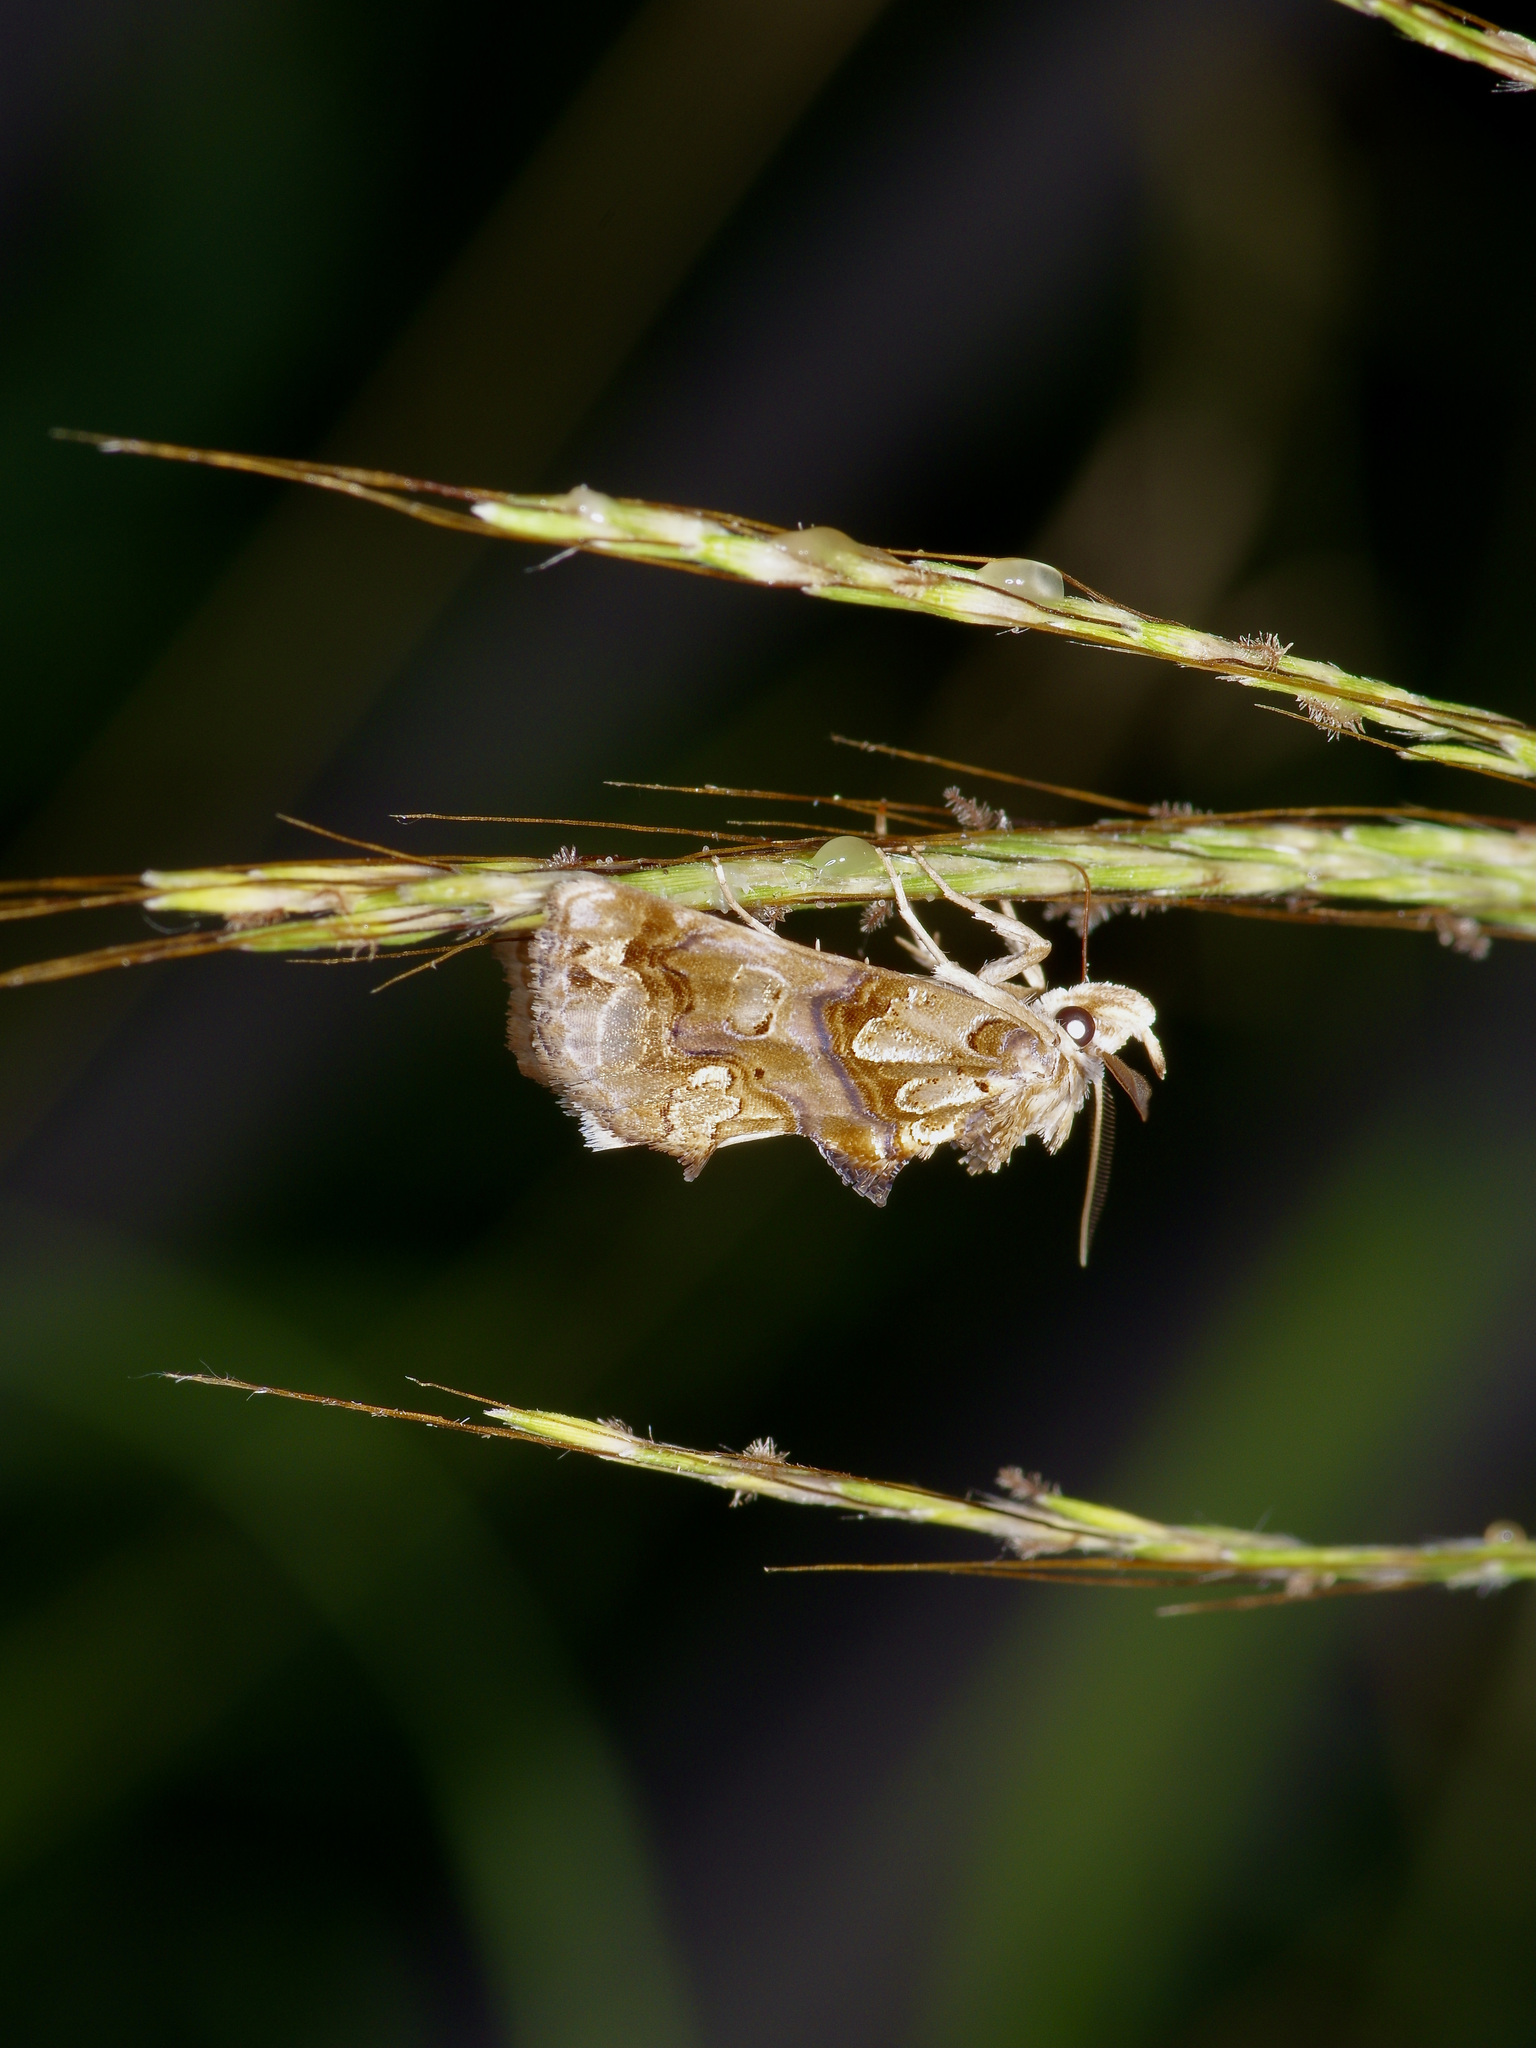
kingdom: Animalia
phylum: Arthropoda
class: Insecta
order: Lepidoptera
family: Erebidae
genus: Plusiodonta
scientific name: Plusiodonta compressipalpis
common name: Moonseed moth
